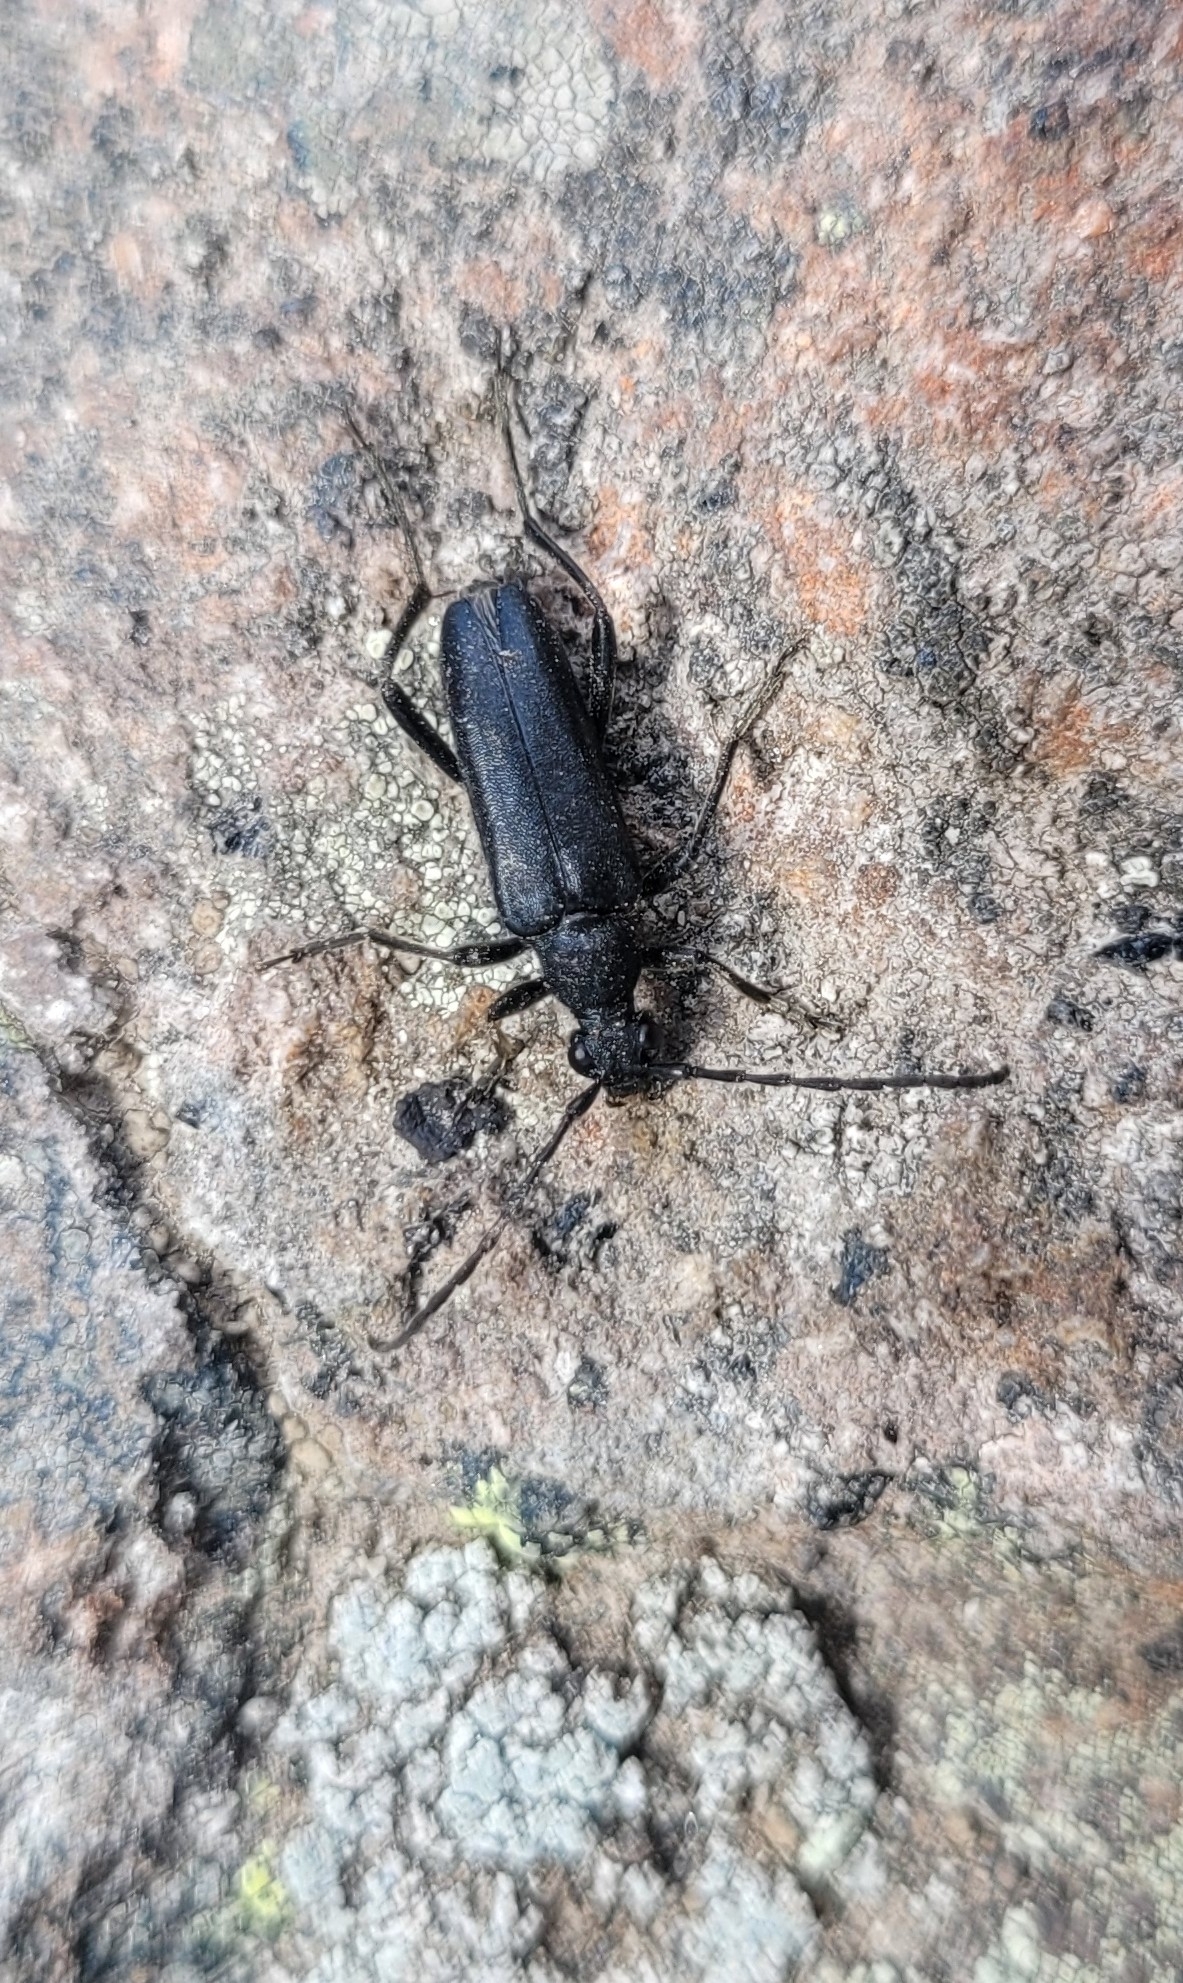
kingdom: Animalia
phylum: Arthropoda
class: Insecta
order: Coleoptera
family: Cerambycidae
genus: Leptura
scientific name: Leptura aethiops
